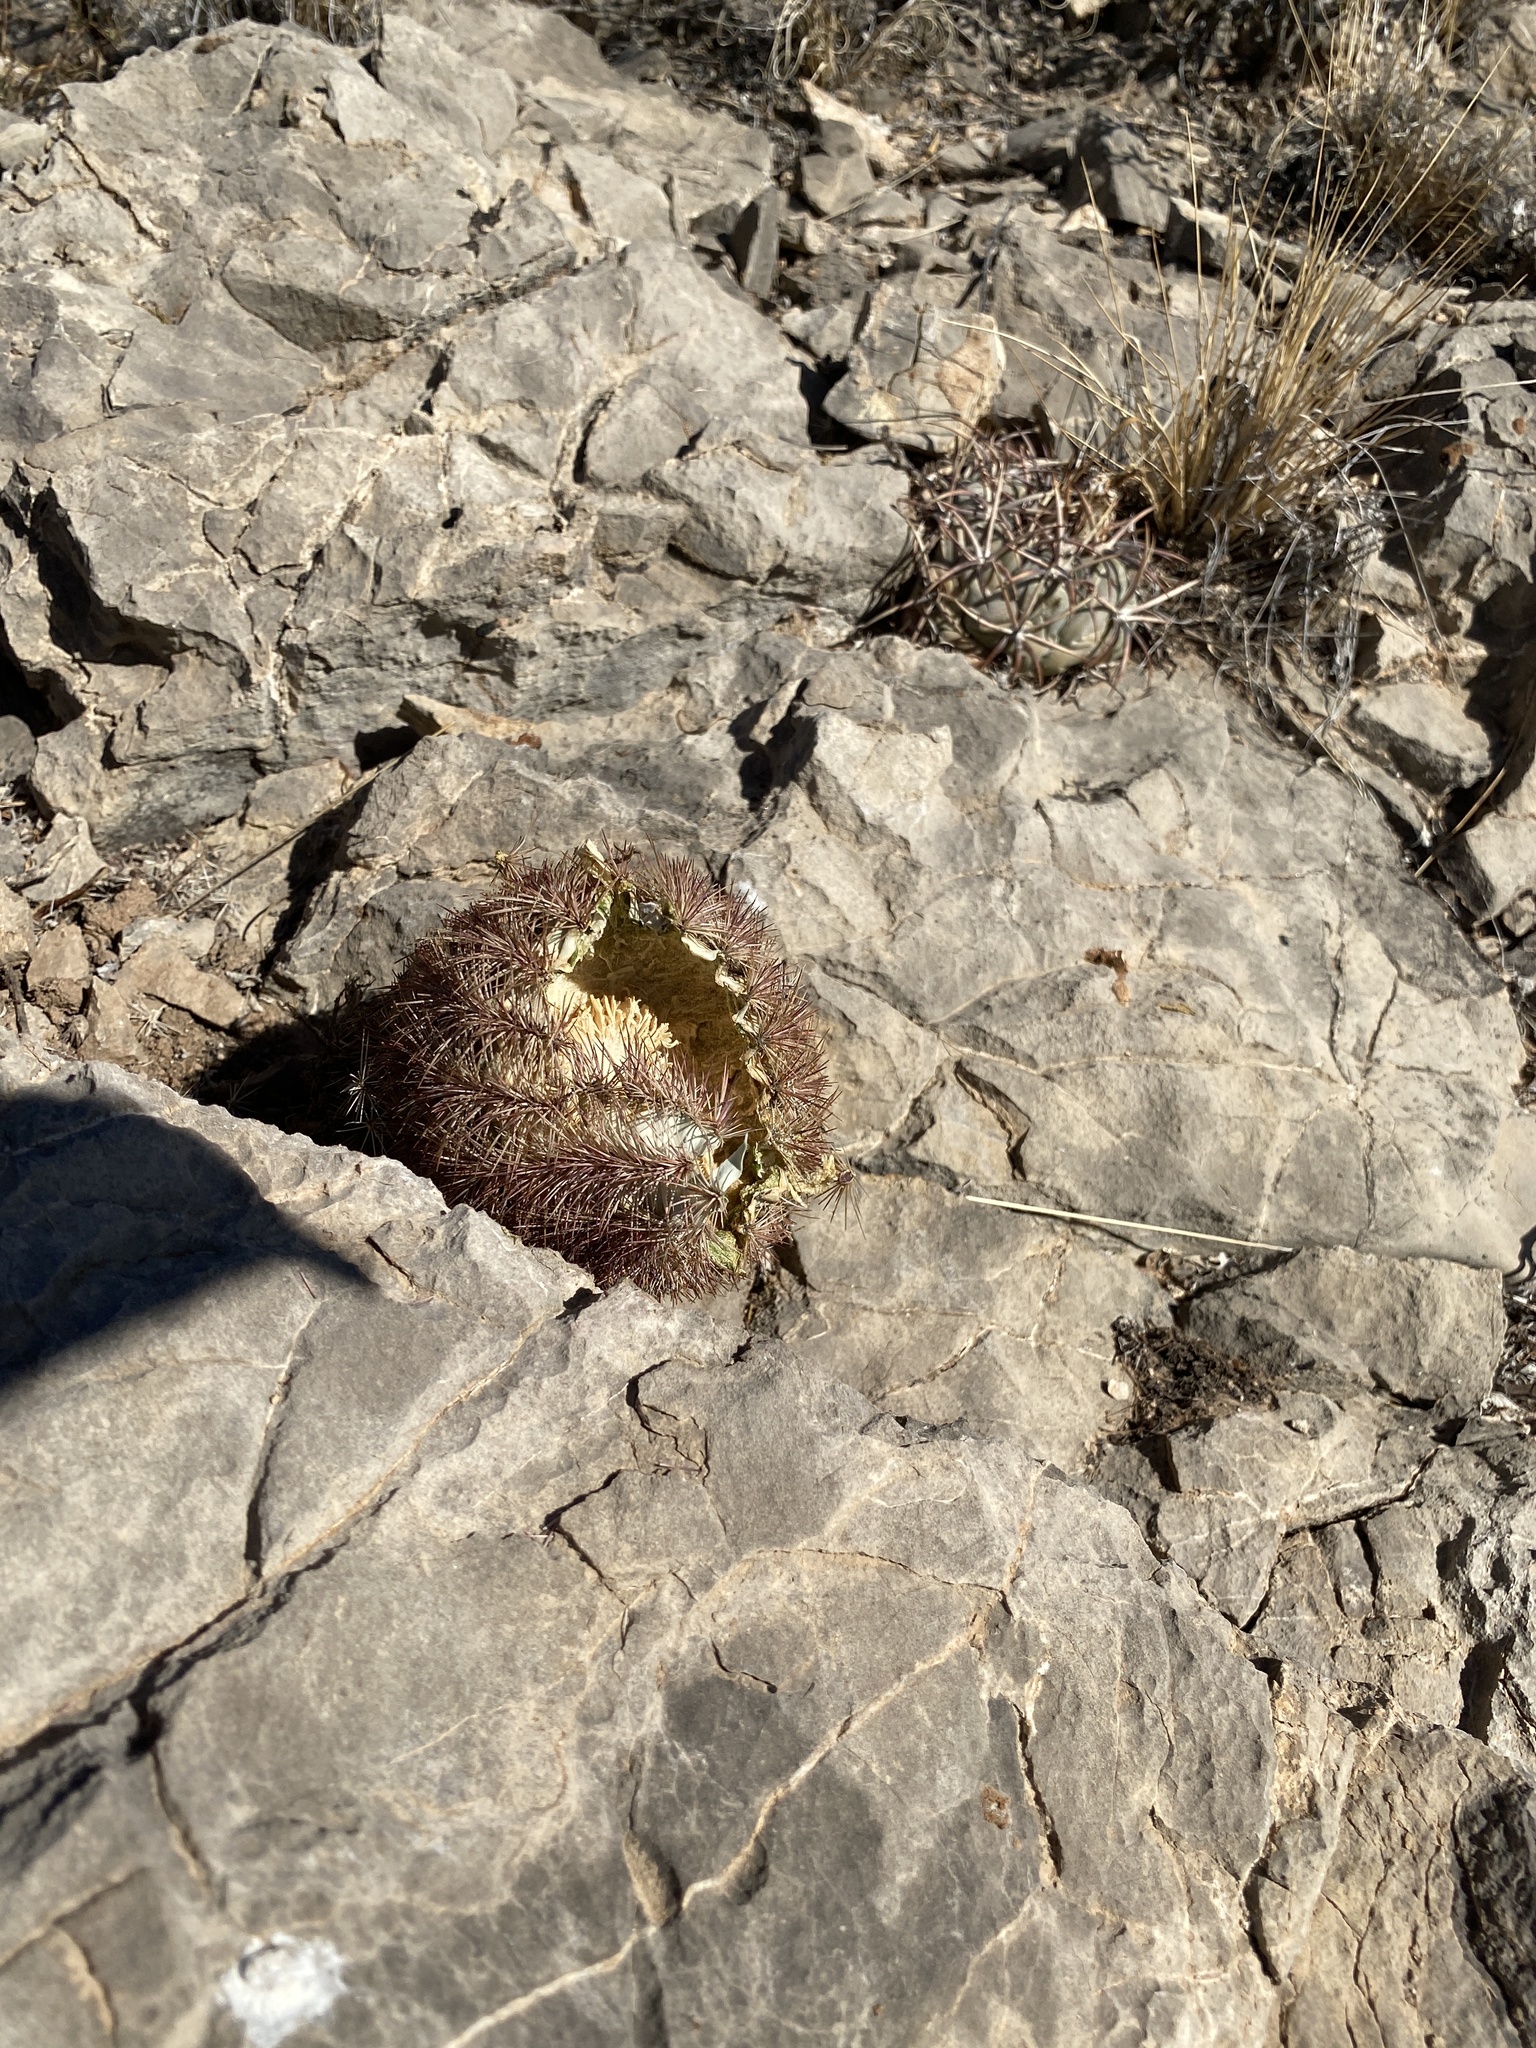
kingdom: Plantae
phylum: Tracheophyta
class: Magnoliopsida
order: Caryophyllales
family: Cactaceae
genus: Echinocereus
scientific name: Echinocereus dasyacanthus
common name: Spiny hedgehog cactus
